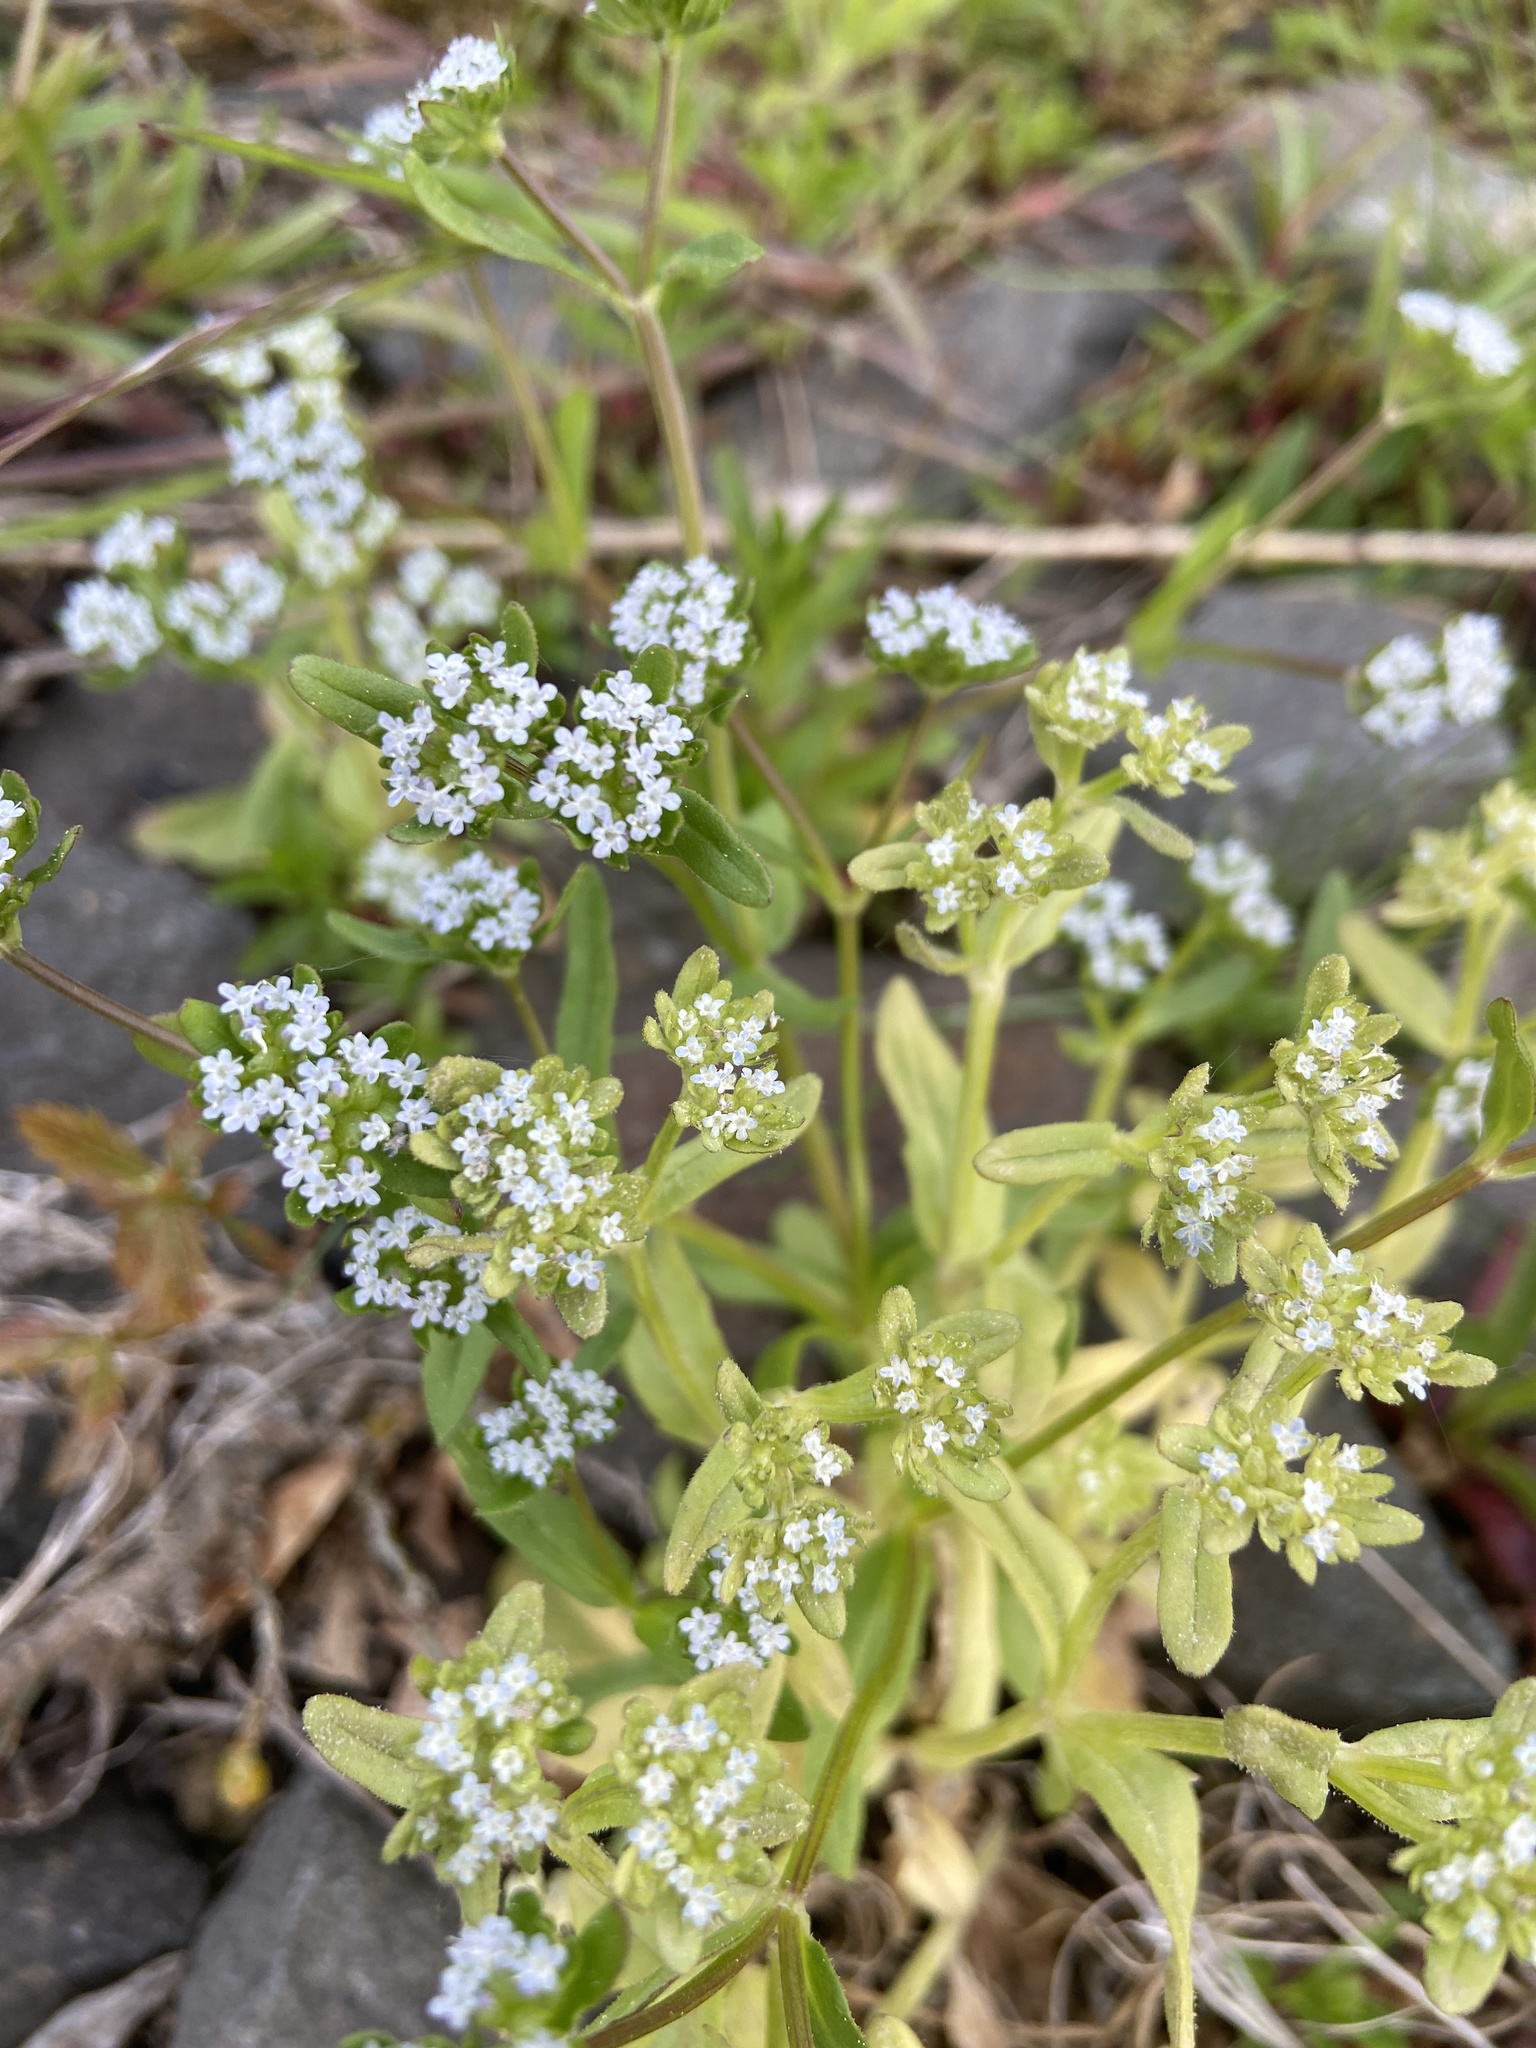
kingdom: Plantae
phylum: Tracheophyta
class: Magnoliopsida
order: Dipsacales
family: Caprifoliaceae
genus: Valerianella
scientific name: Valerianella locusta
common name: Common cornsalad
